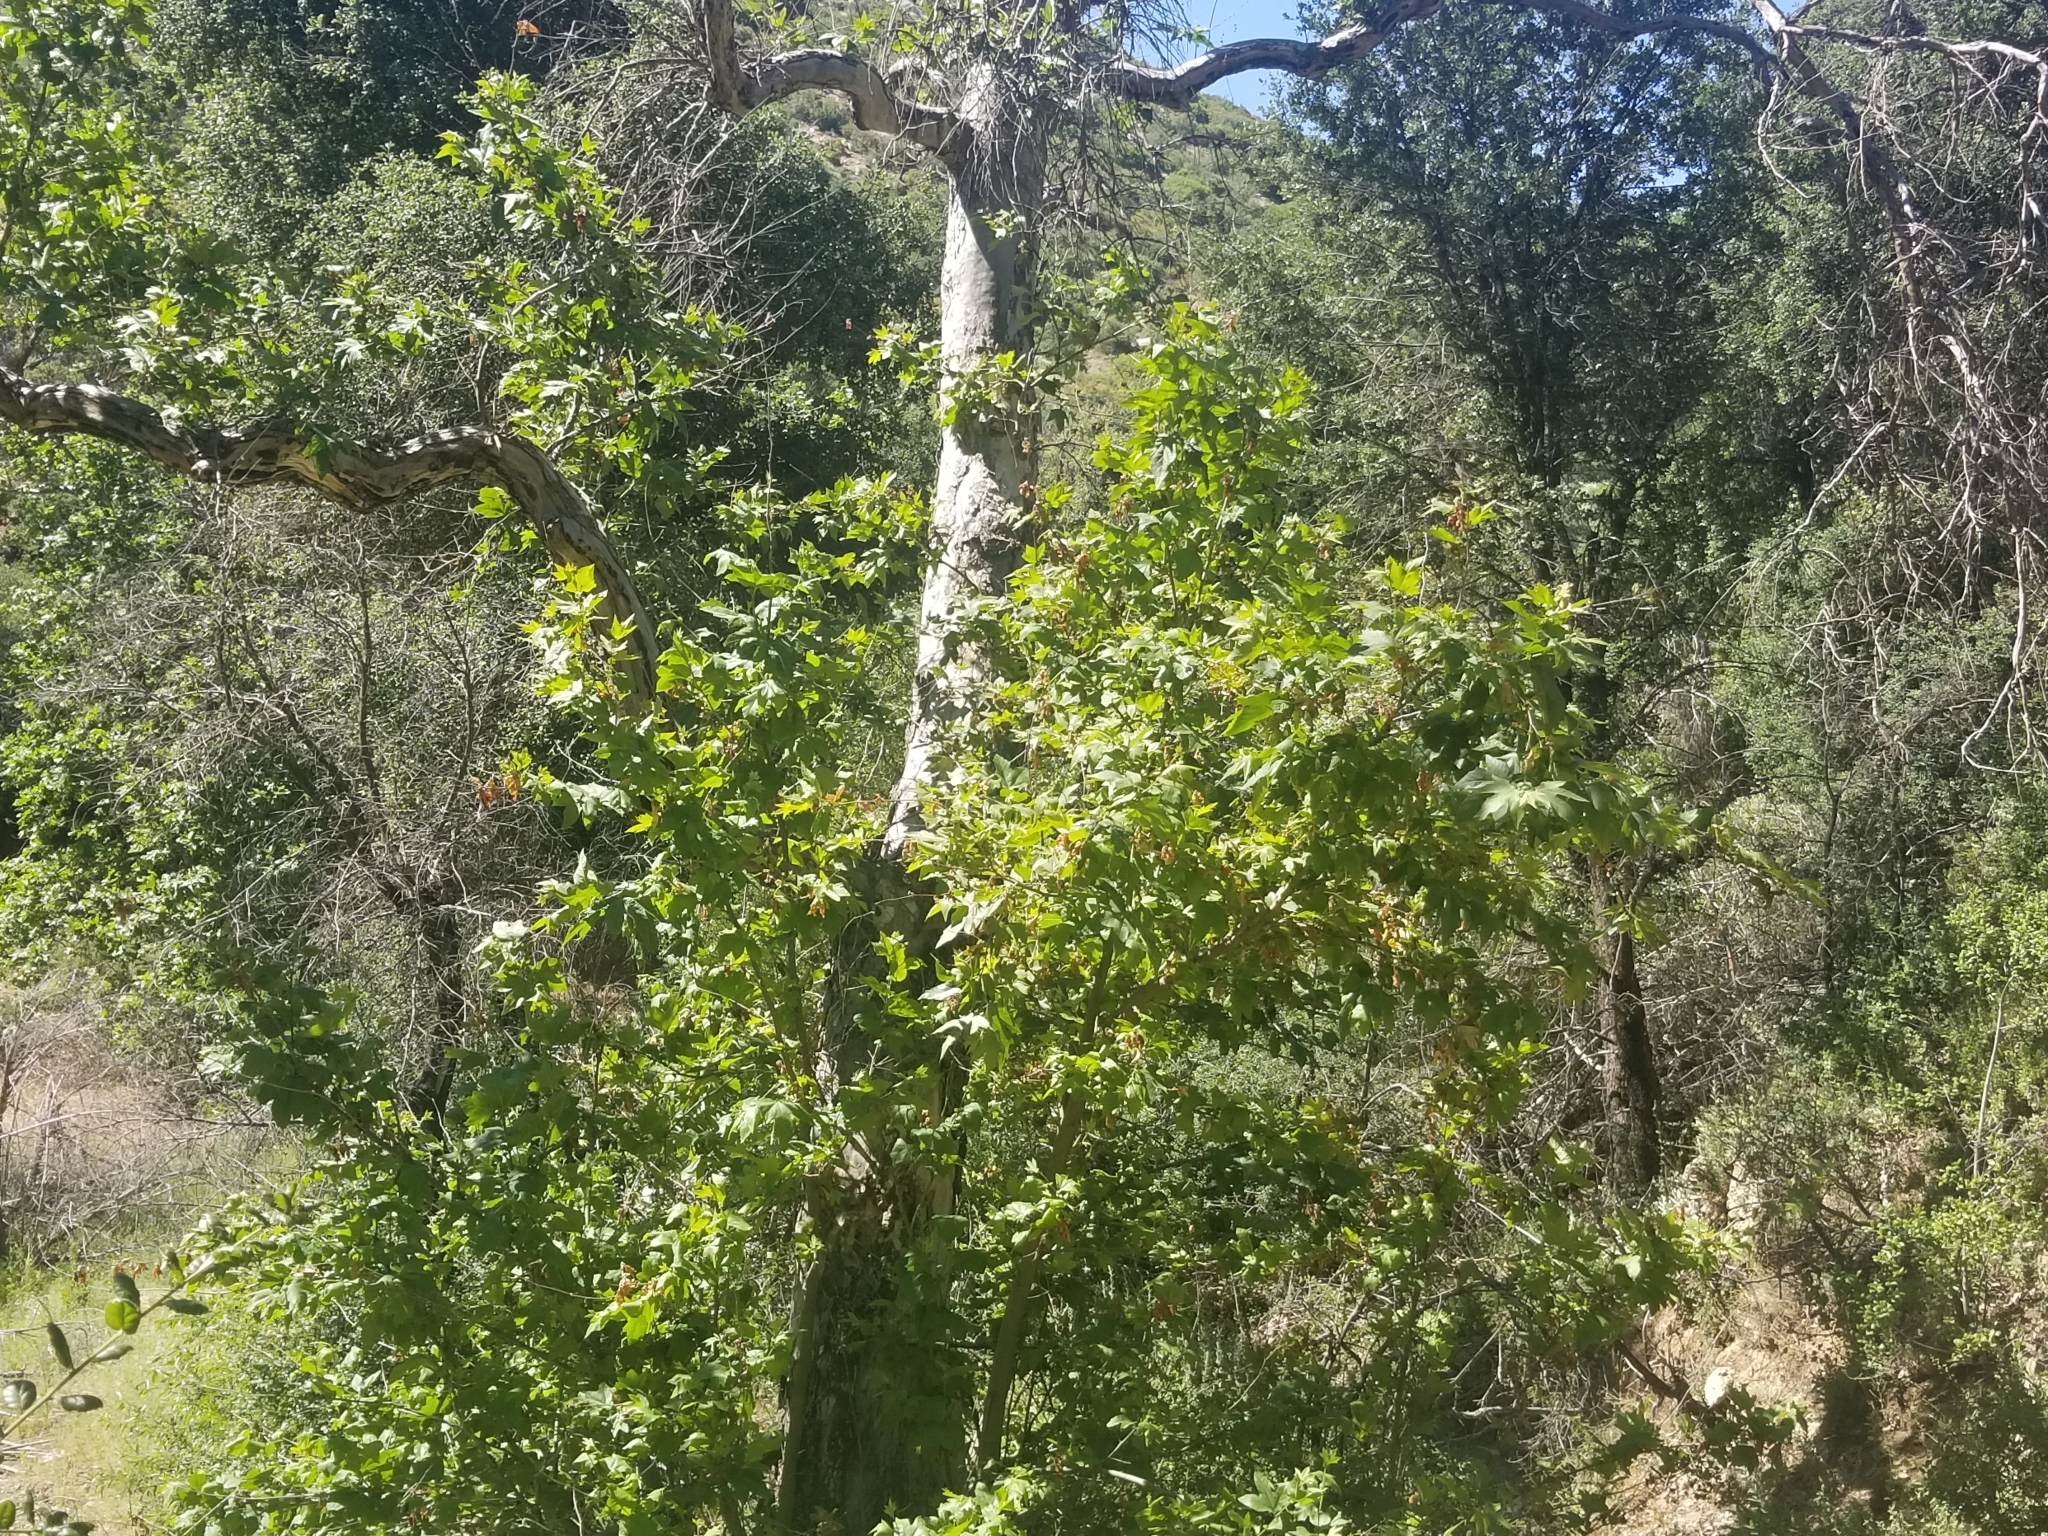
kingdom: Plantae
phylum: Tracheophyta
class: Magnoliopsida
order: Proteales
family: Platanaceae
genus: Platanus
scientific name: Platanus racemosa
